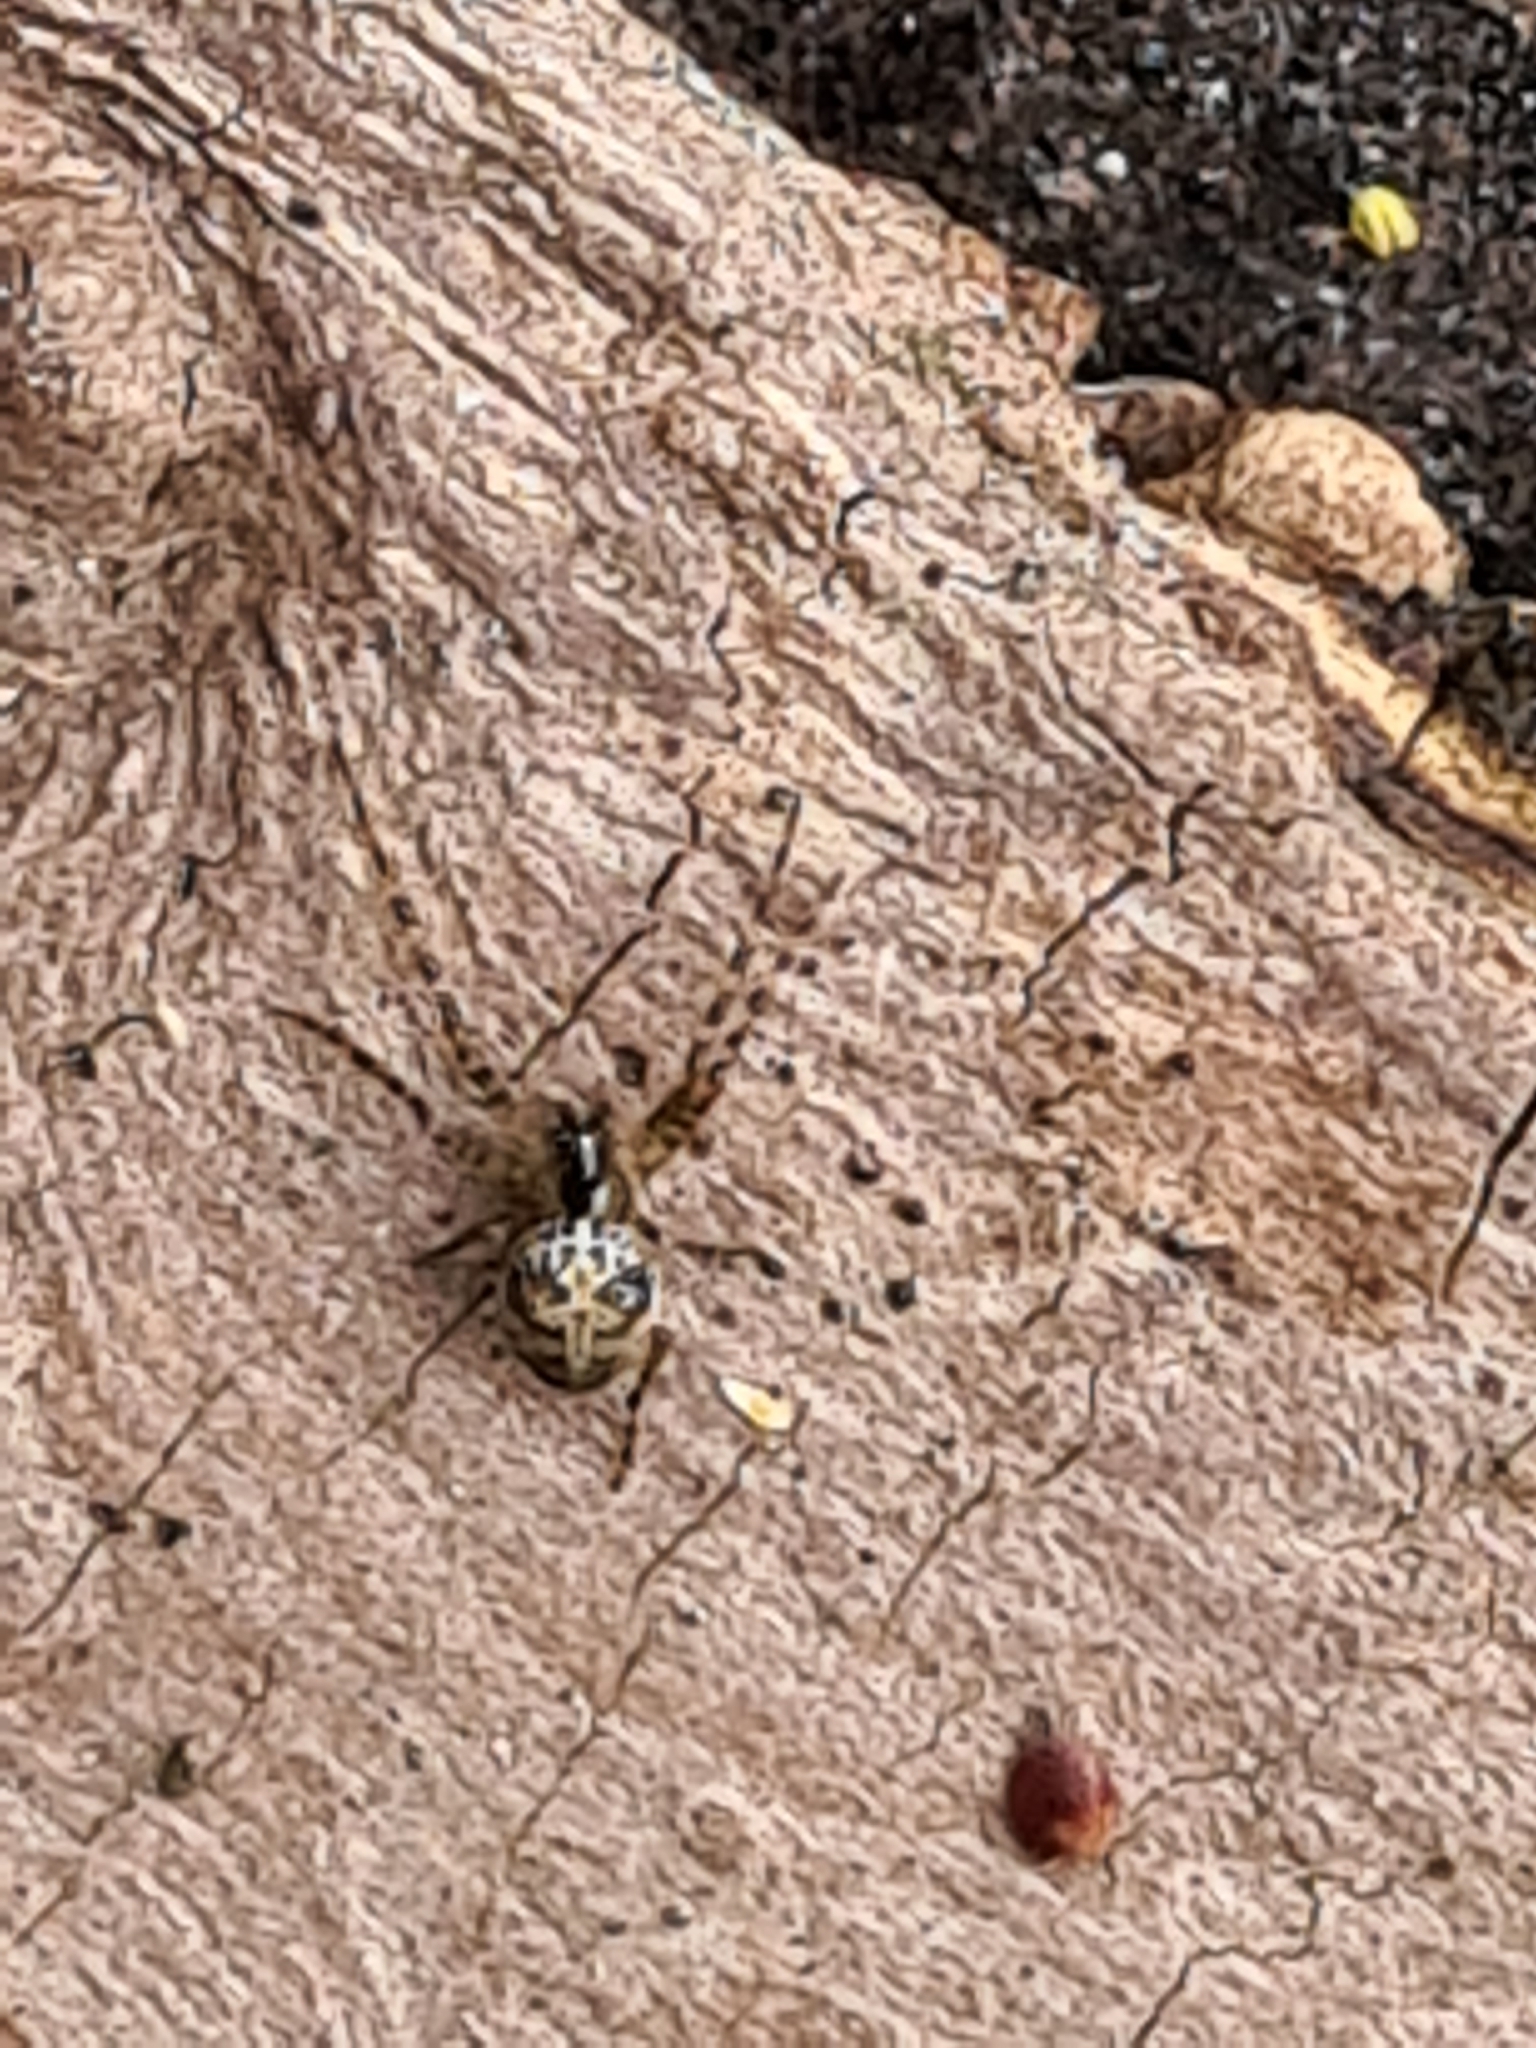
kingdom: Animalia
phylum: Arthropoda
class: Arachnida
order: Araneae
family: Tetragnathidae
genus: Metellina
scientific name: Metellina merianae
